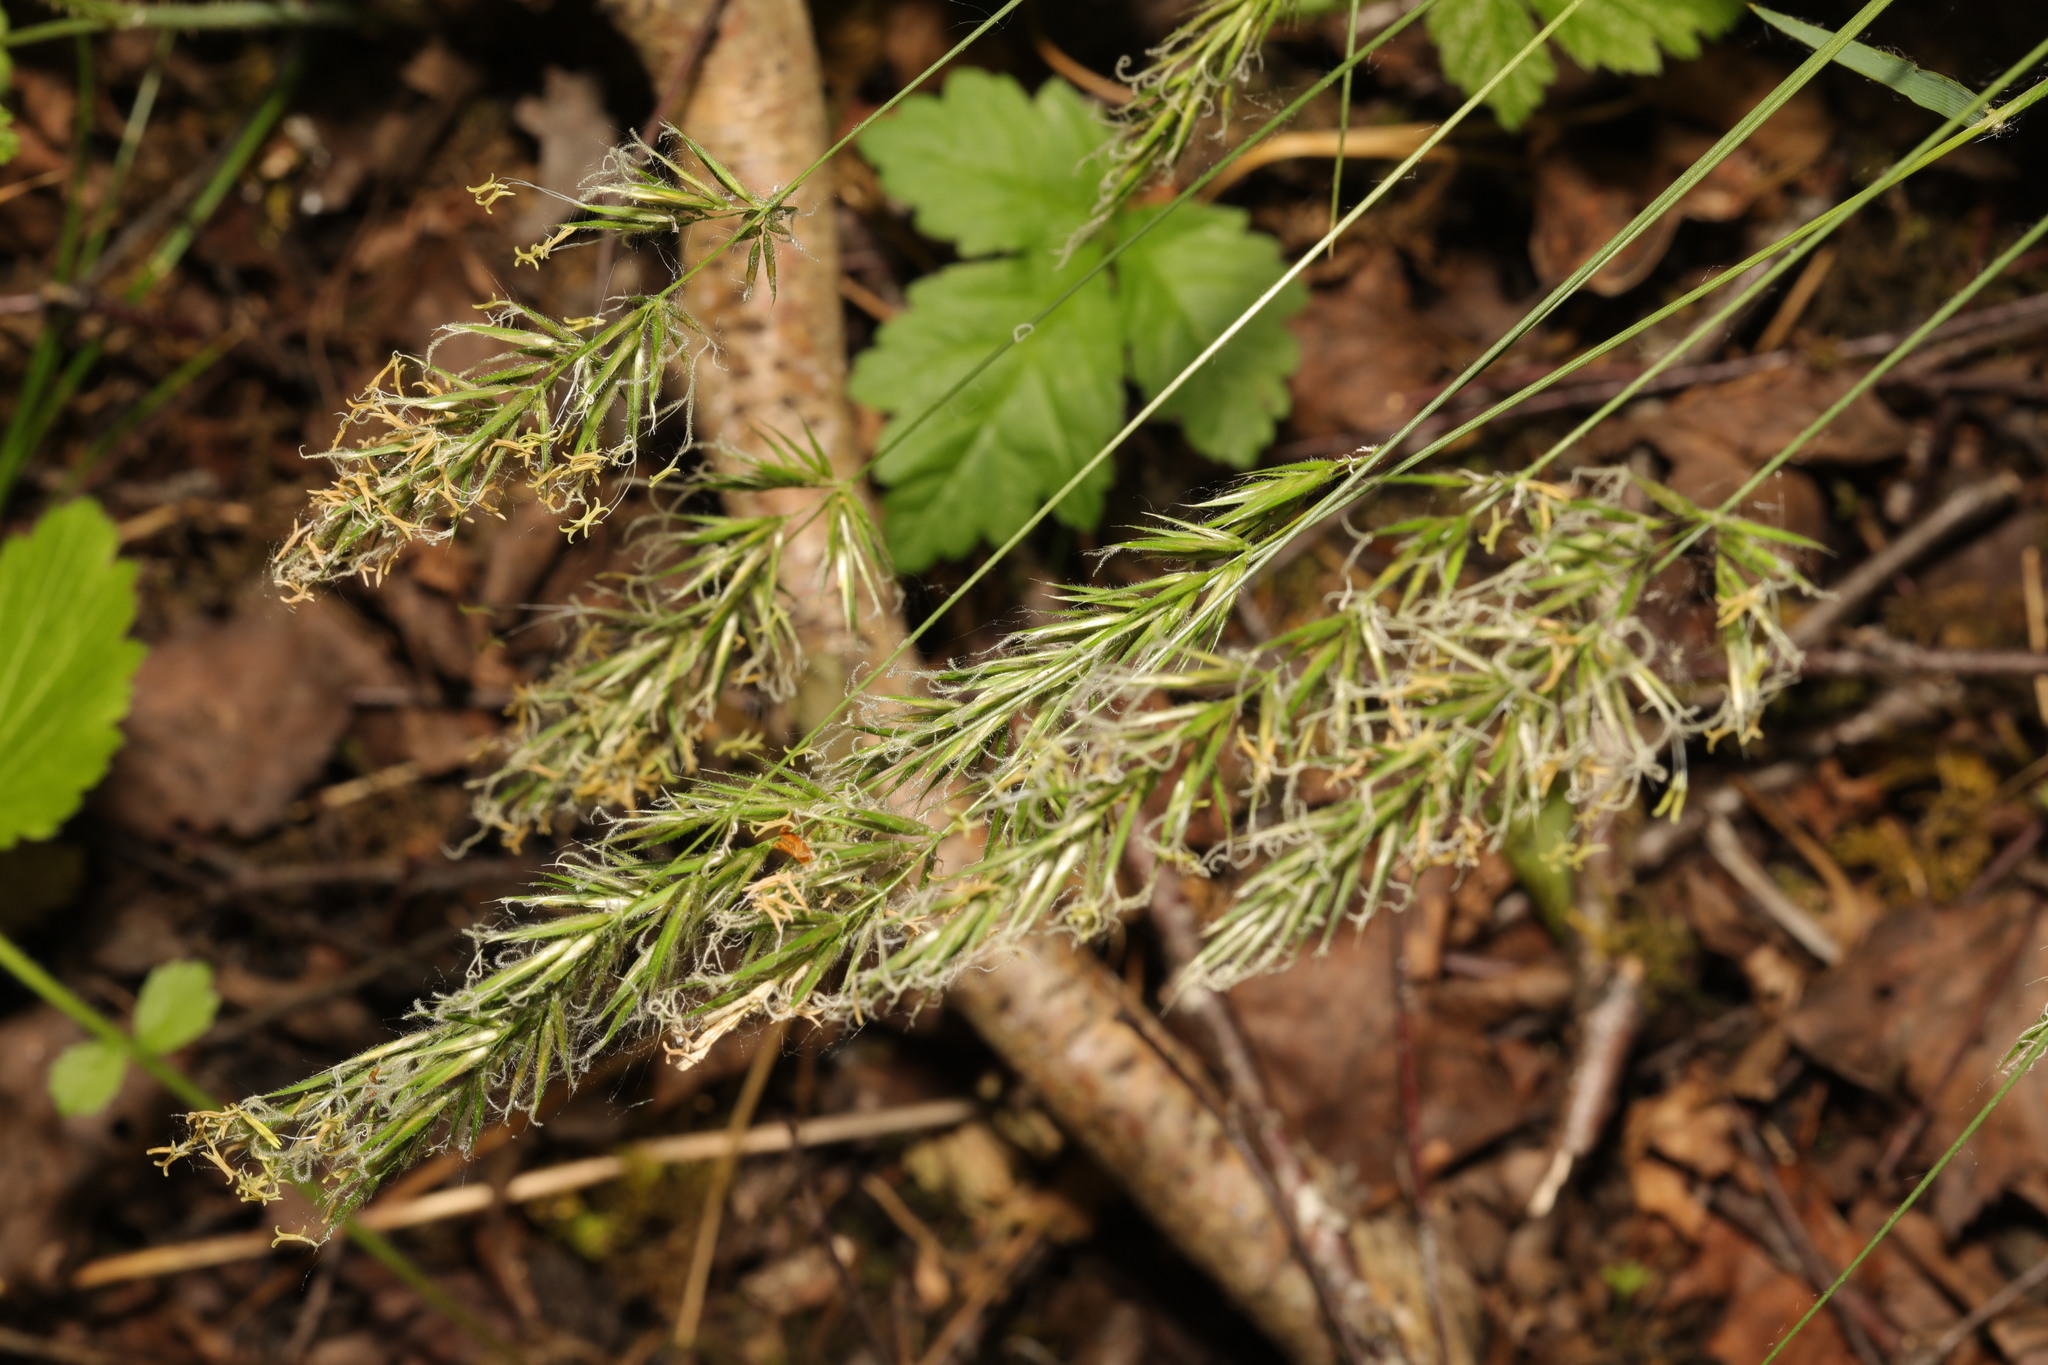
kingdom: Plantae
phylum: Tracheophyta
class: Liliopsida
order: Poales
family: Poaceae
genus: Anthoxanthum
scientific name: Anthoxanthum odoratum
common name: Sweet vernalgrass
